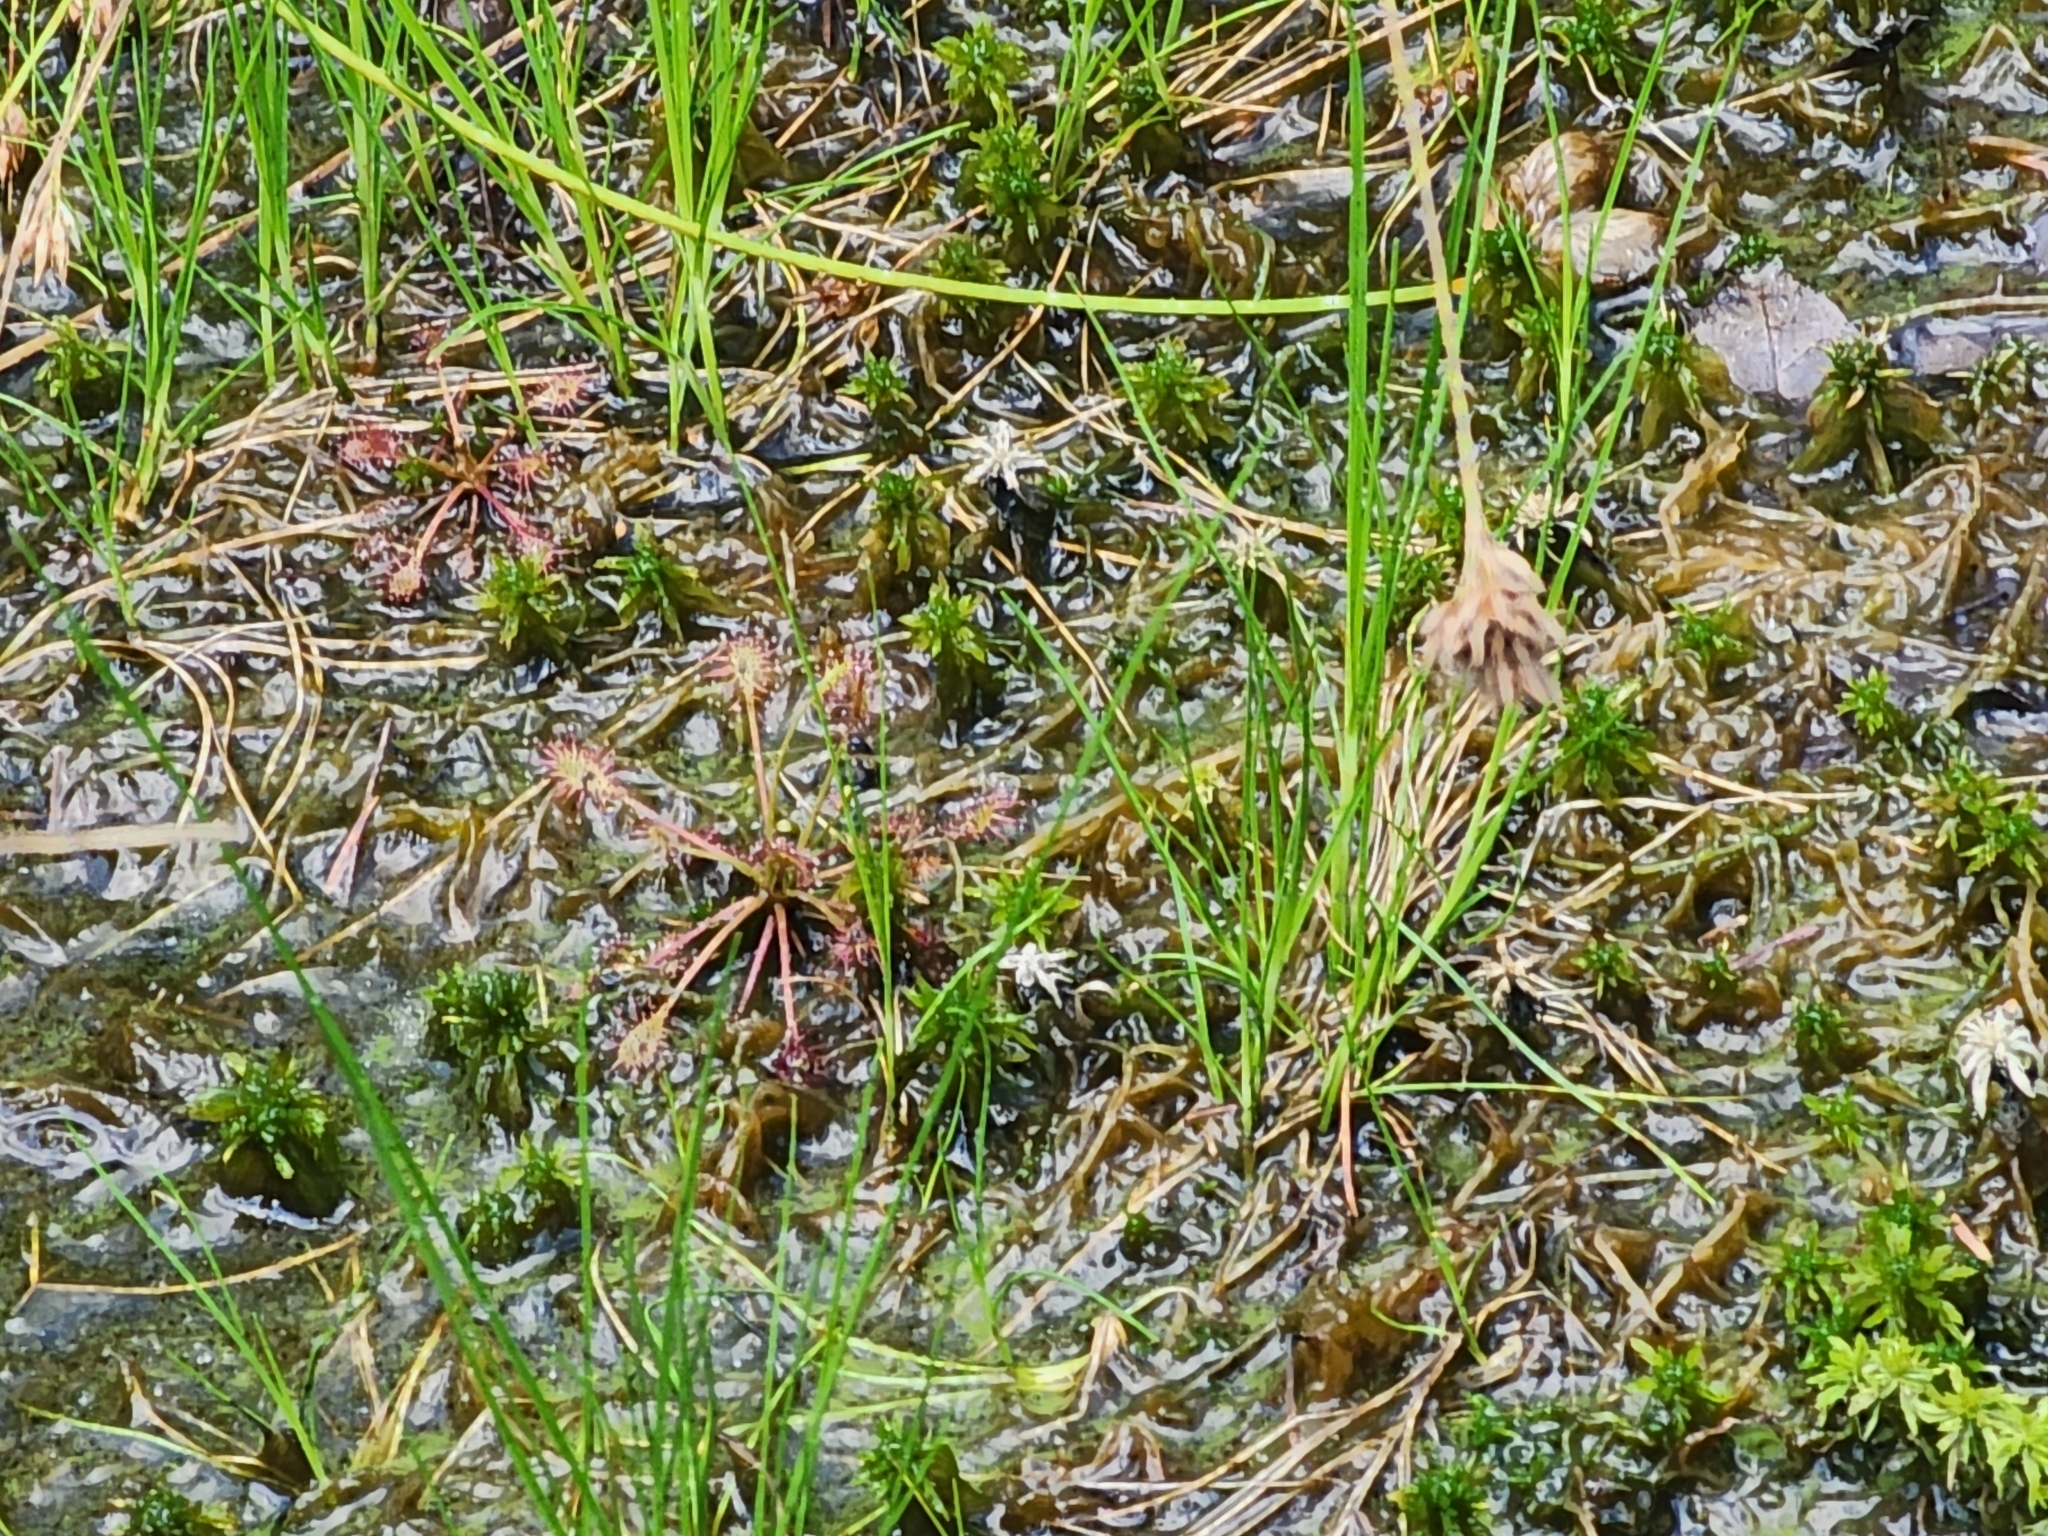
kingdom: Plantae
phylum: Tracheophyta
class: Magnoliopsida
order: Caryophyllales
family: Droseraceae
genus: Drosera
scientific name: Drosera intermedia
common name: Oblong-leaved sundew
